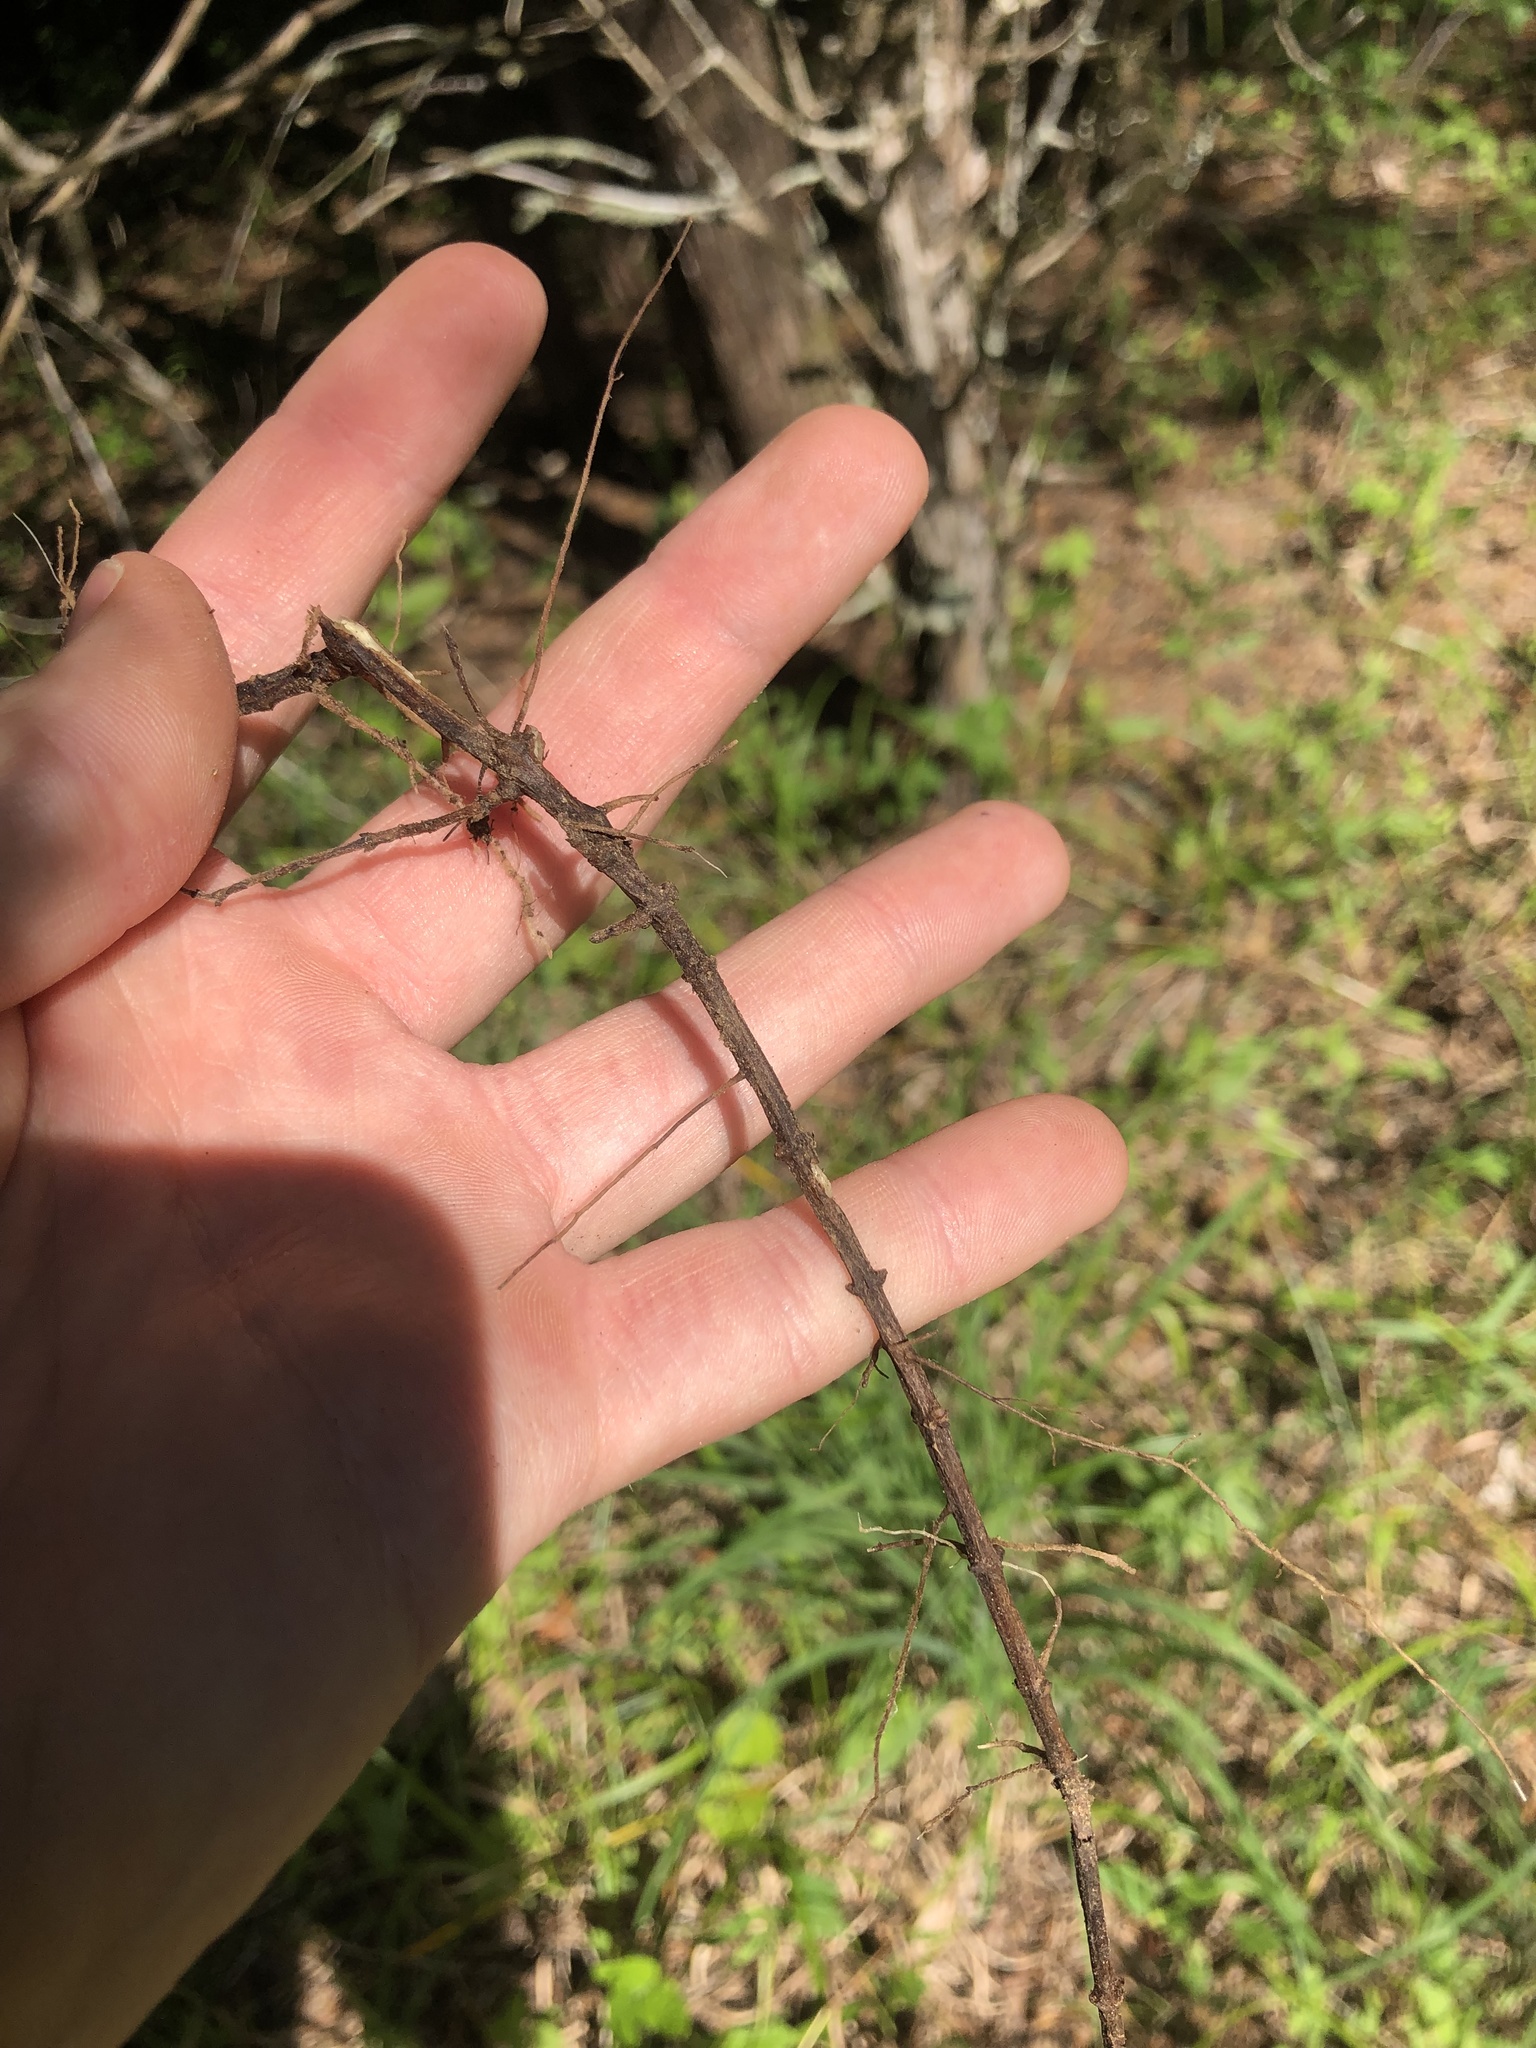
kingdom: Plantae
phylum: Tracheophyta
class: Magnoliopsida
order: Lamiales
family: Lamiaceae
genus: Pycnanthemum
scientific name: Pycnanthemum albescens
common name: White-leaf mountain-mint
